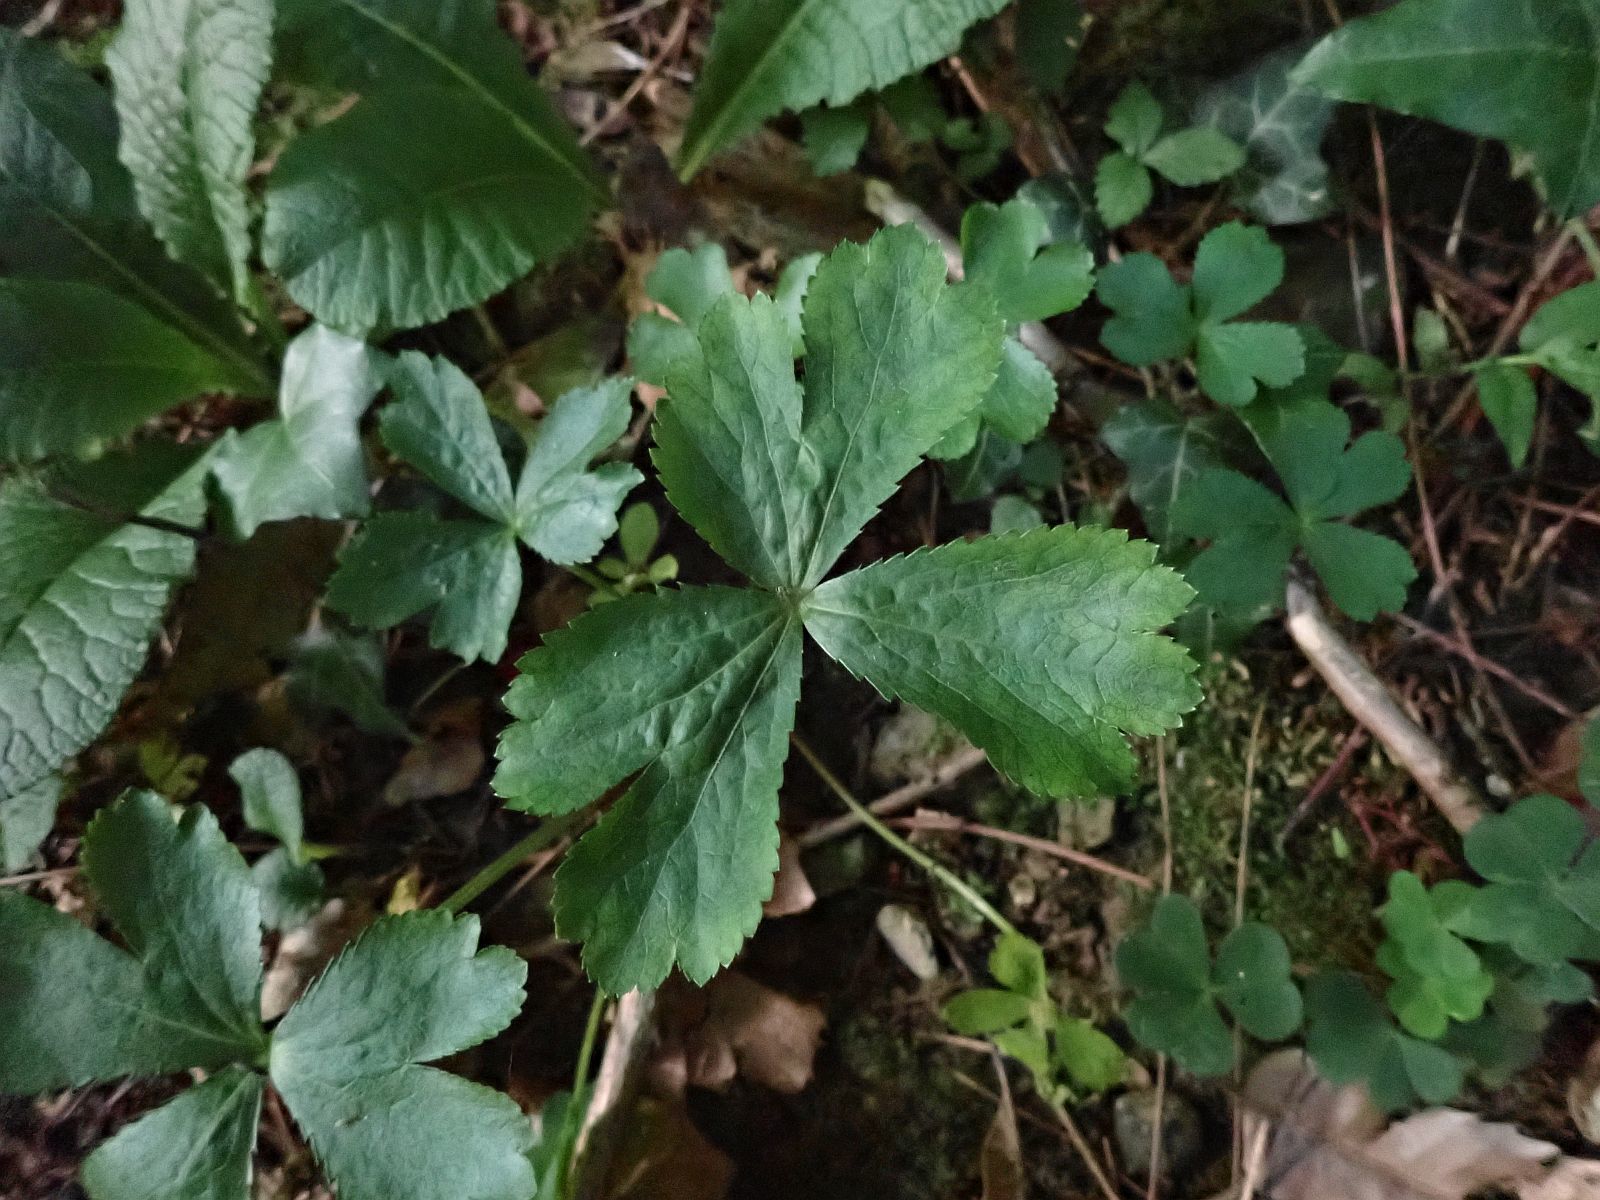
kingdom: Plantae
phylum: Tracheophyta
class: Magnoliopsida
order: Apiales
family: Apiaceae
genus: Sanicula
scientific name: Sanicula europaea
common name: Sanicle
